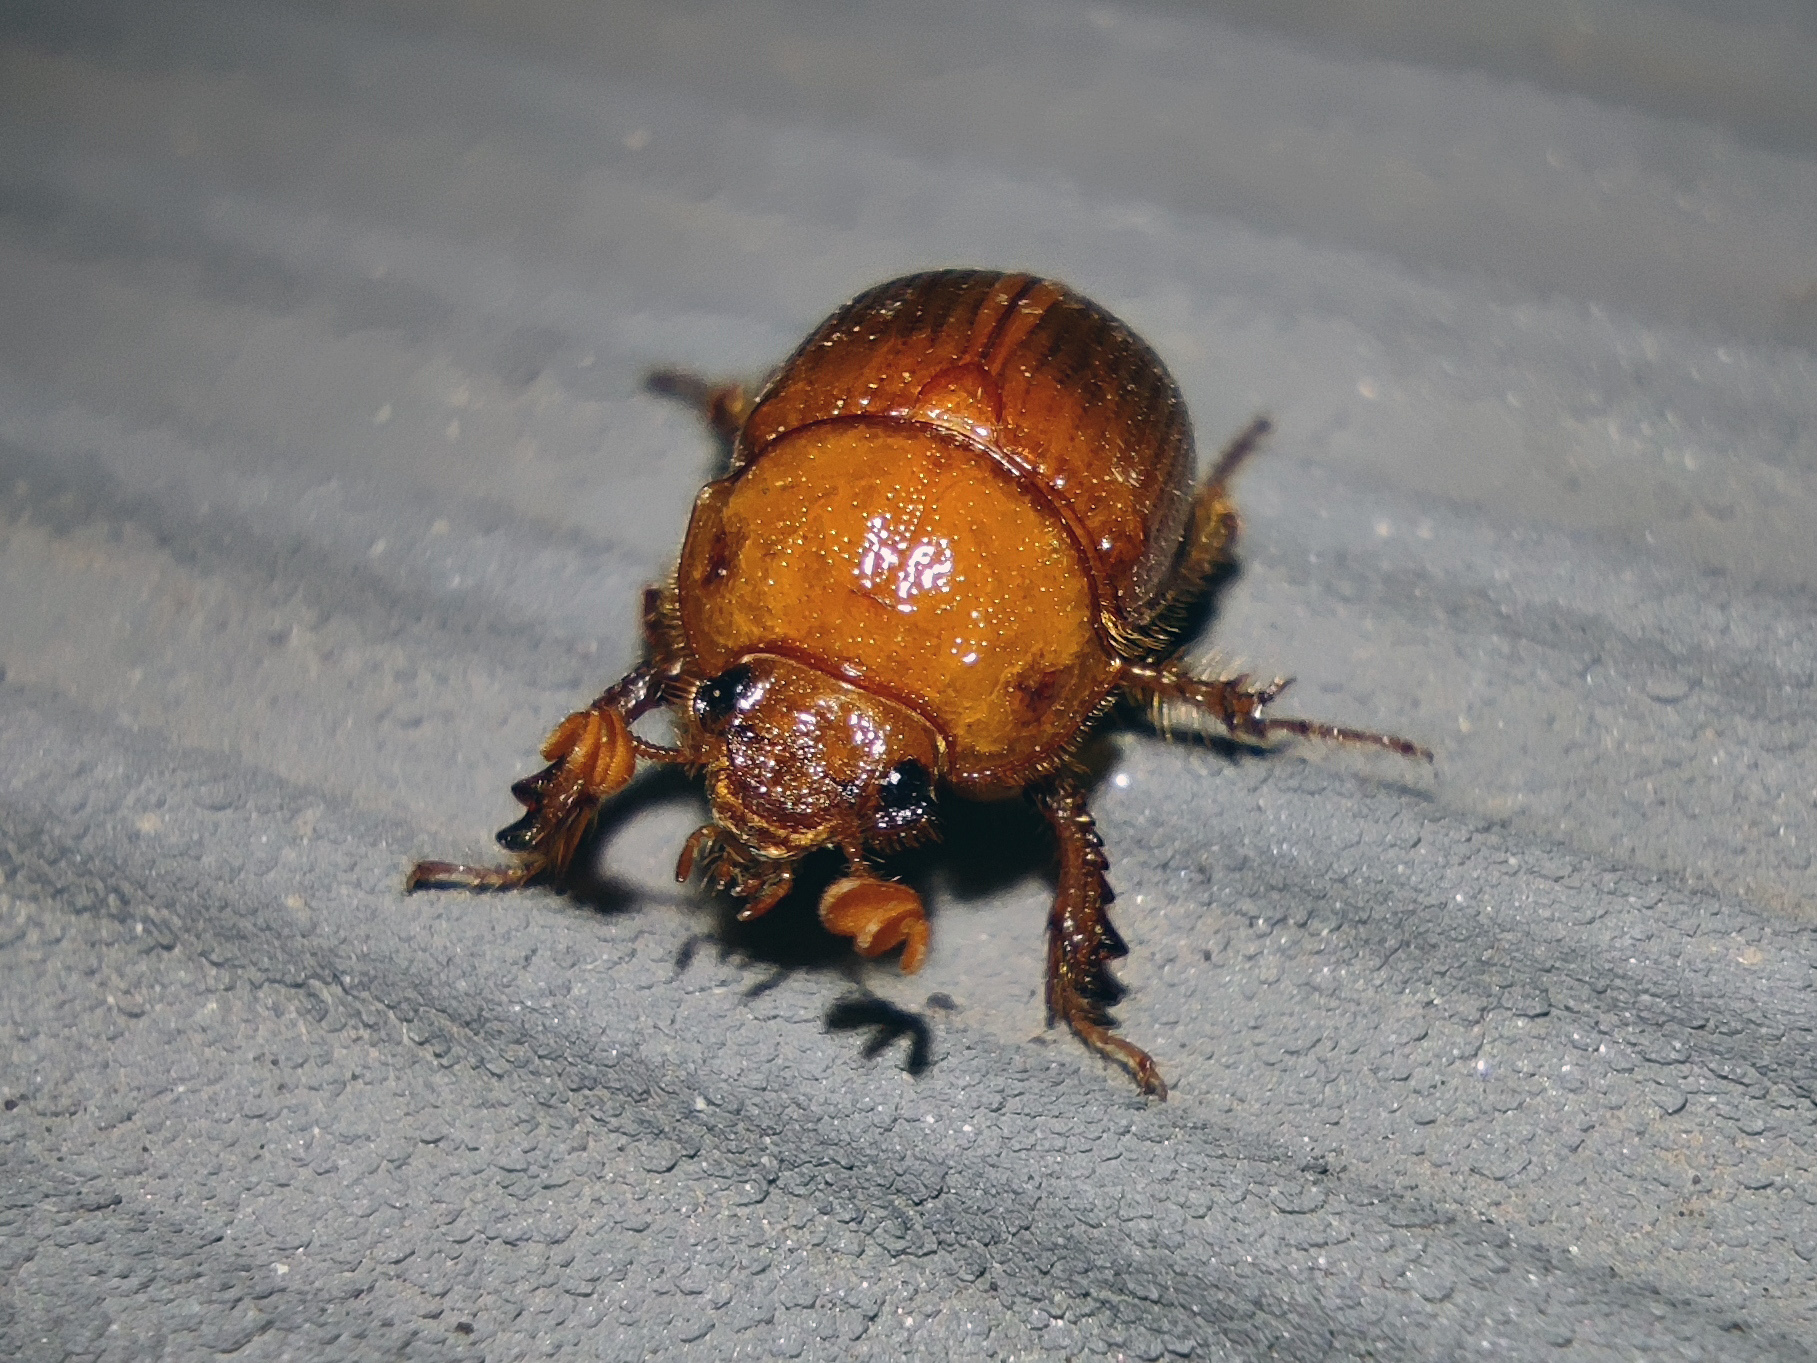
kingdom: Animalia
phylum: Arthropoda
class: Insecta
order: Coleoptera
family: Geotrupidae
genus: Odonteus
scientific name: Odonteus armiger
